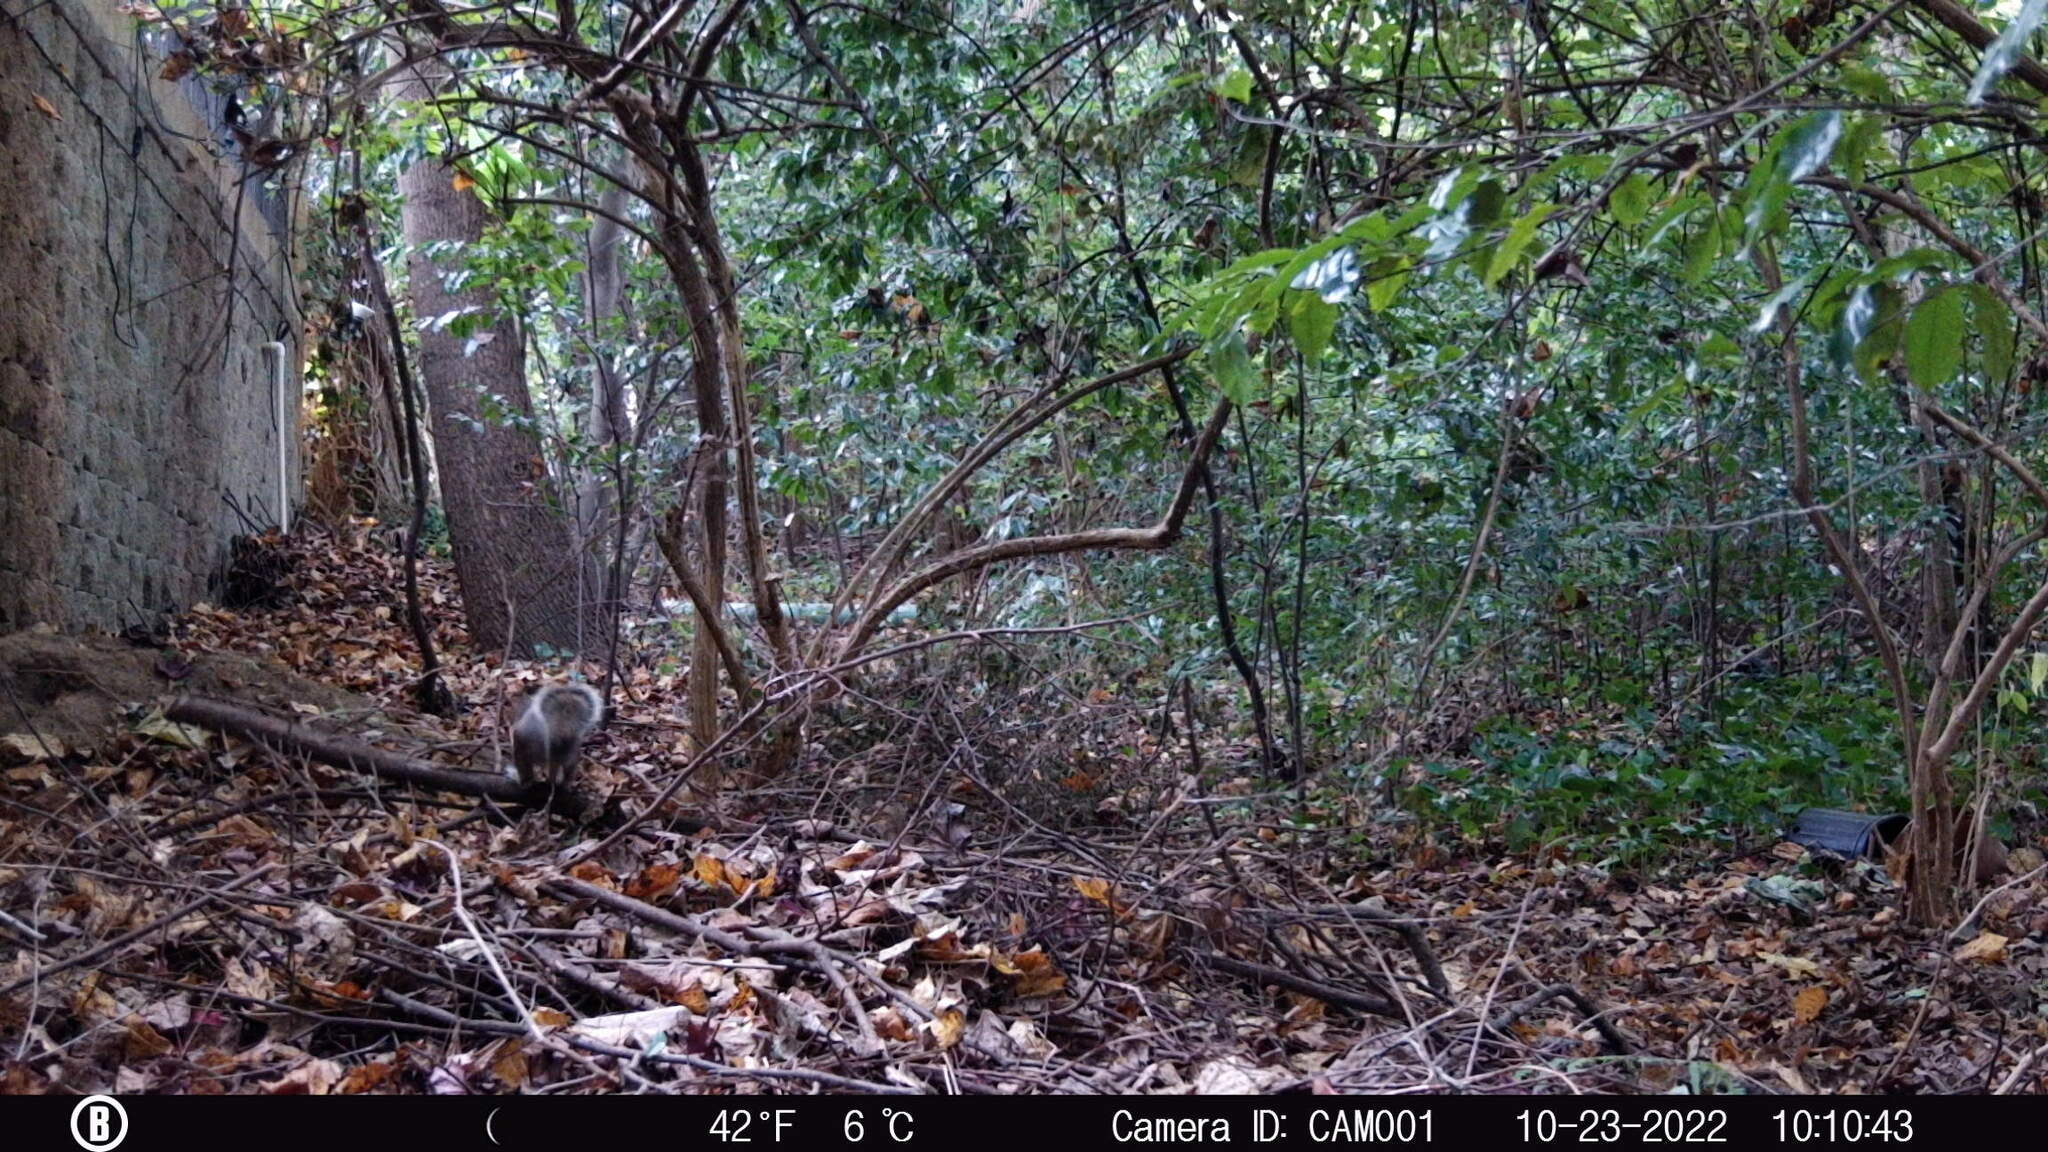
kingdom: Animalia
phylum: Chordata
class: Mammalia
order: Rodentia
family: Sciuridae
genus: Sciurus
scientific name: Sciurus carolinensis
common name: Eastern gray squirrel
